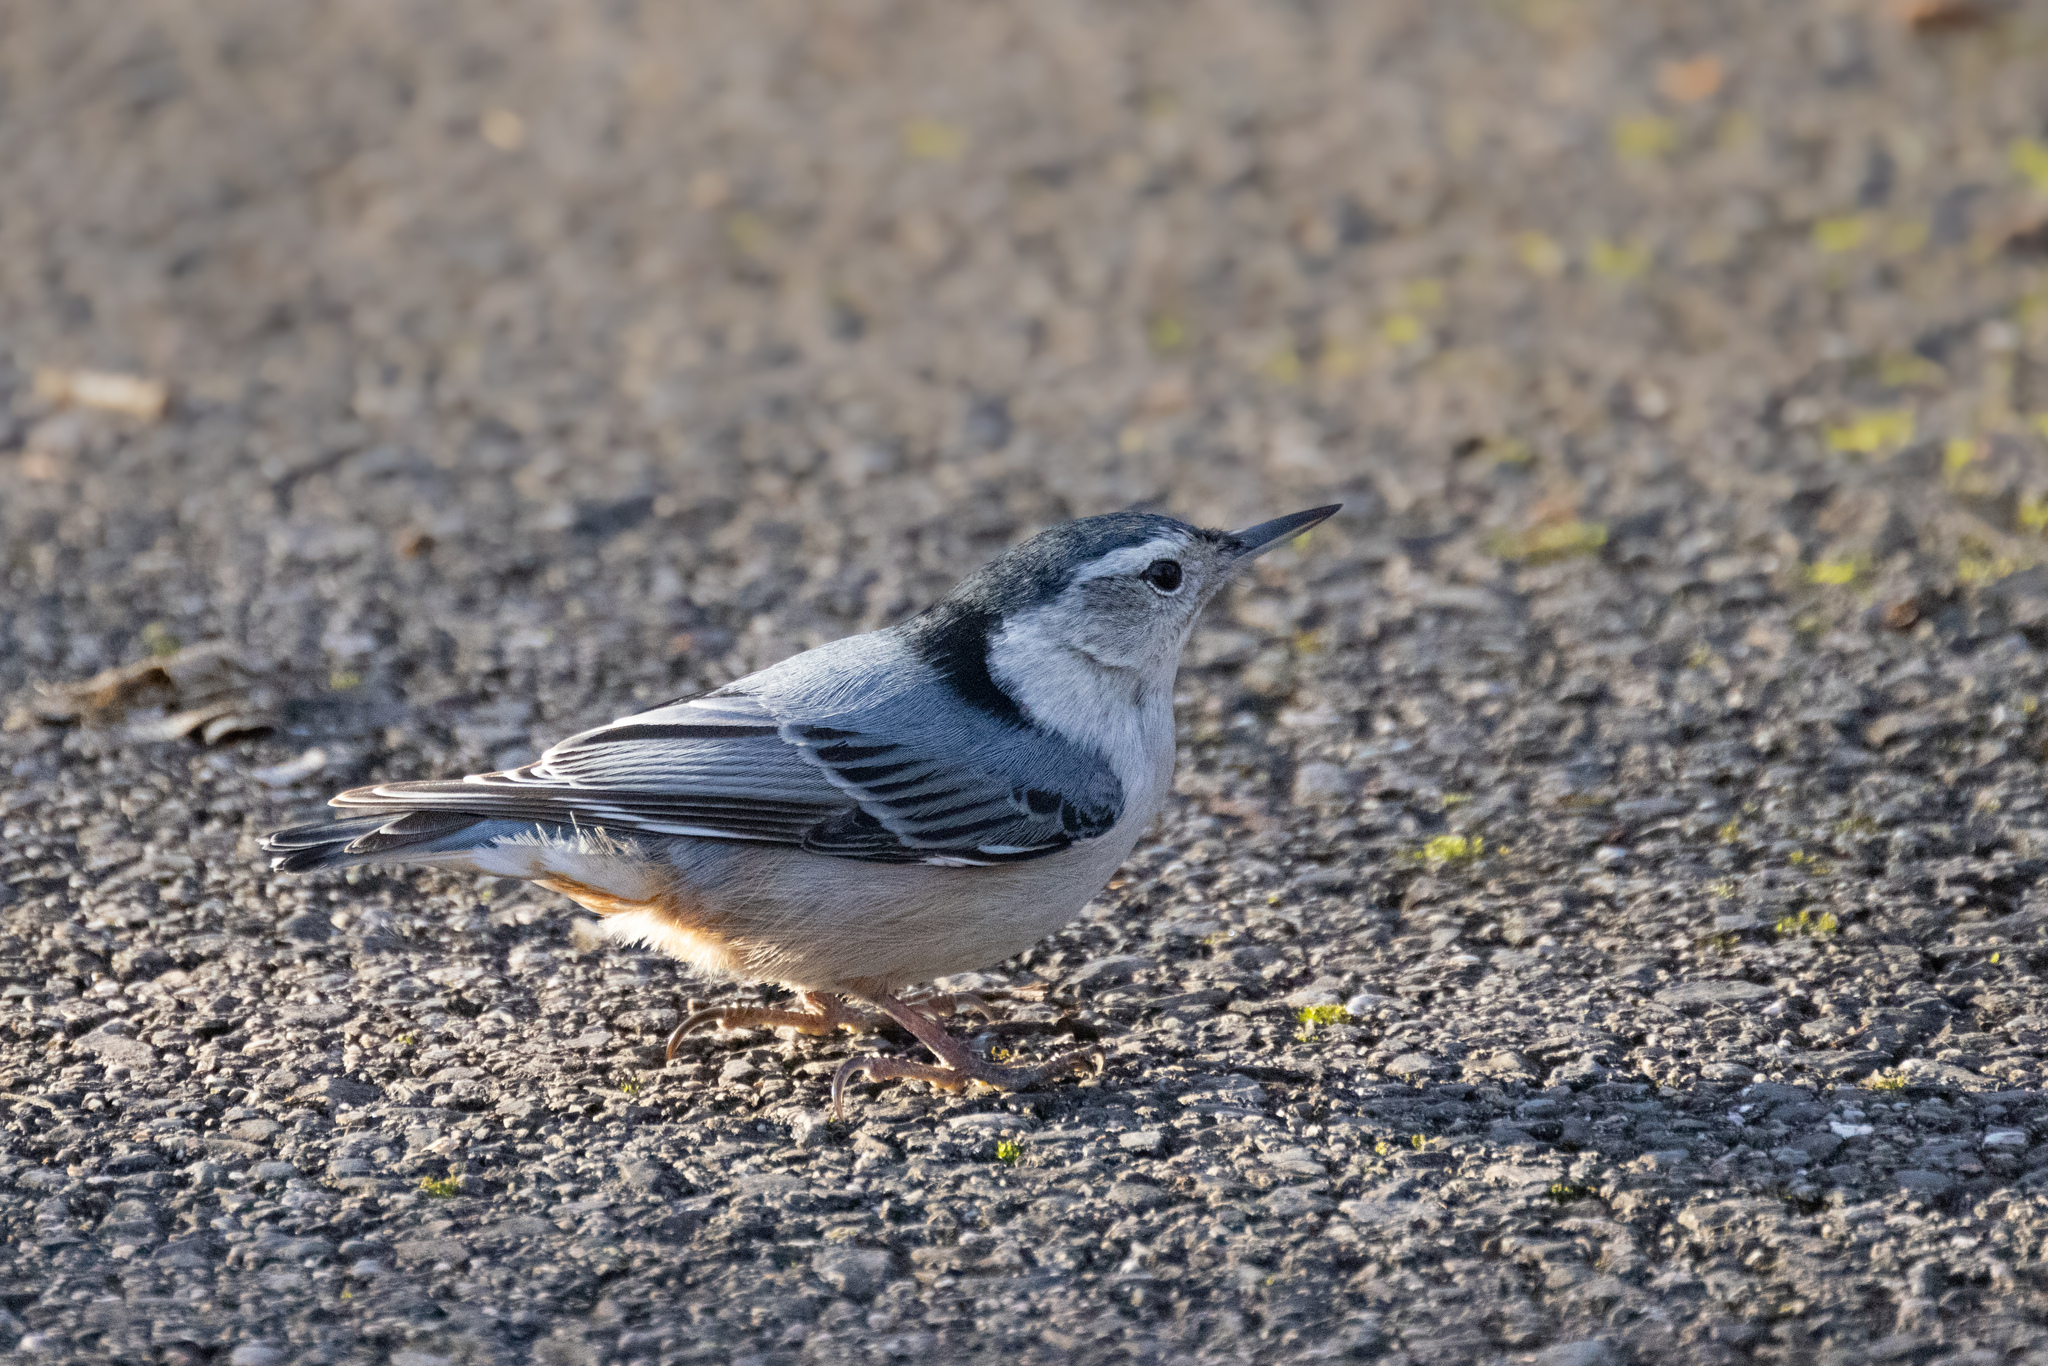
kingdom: Animalia
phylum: Chordata
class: Aves
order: Passeriformes
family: Sittidae
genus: Sitta
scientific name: Sitta carolinensis
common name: White-breasted nuthatch
